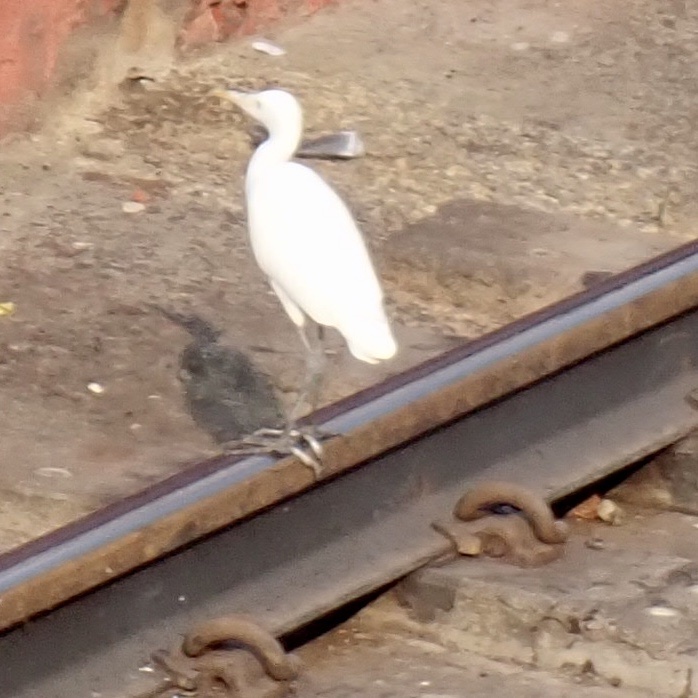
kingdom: Animalia
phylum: Chordata
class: Aves
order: Pelecaniformes
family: Ardeidae
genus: Bubulcus
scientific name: Bubulcus coromandus
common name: Eastern cattle egret
